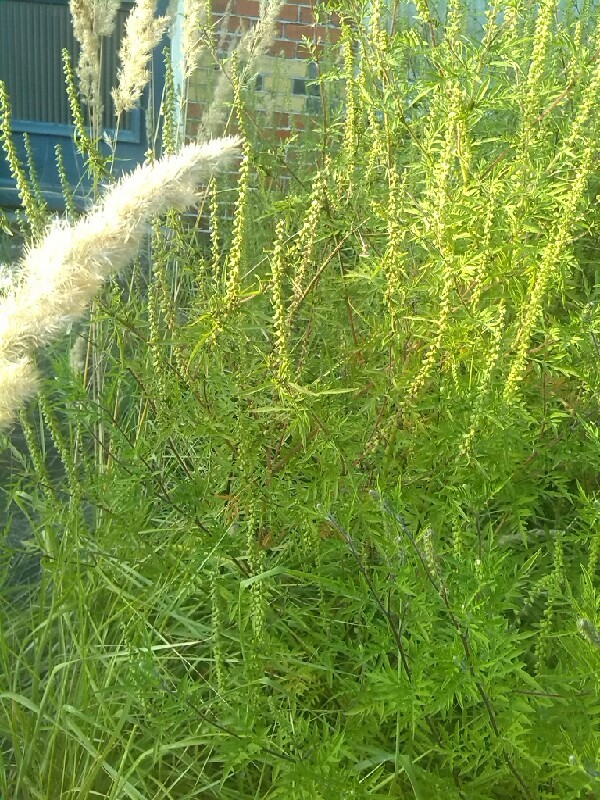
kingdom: Plantae
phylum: Tracheophyta
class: Magnoliopsida
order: Asterales
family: Asteraceae
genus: Ambrosia
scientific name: Ambrosia artemisiifolia
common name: Annual ragweed
